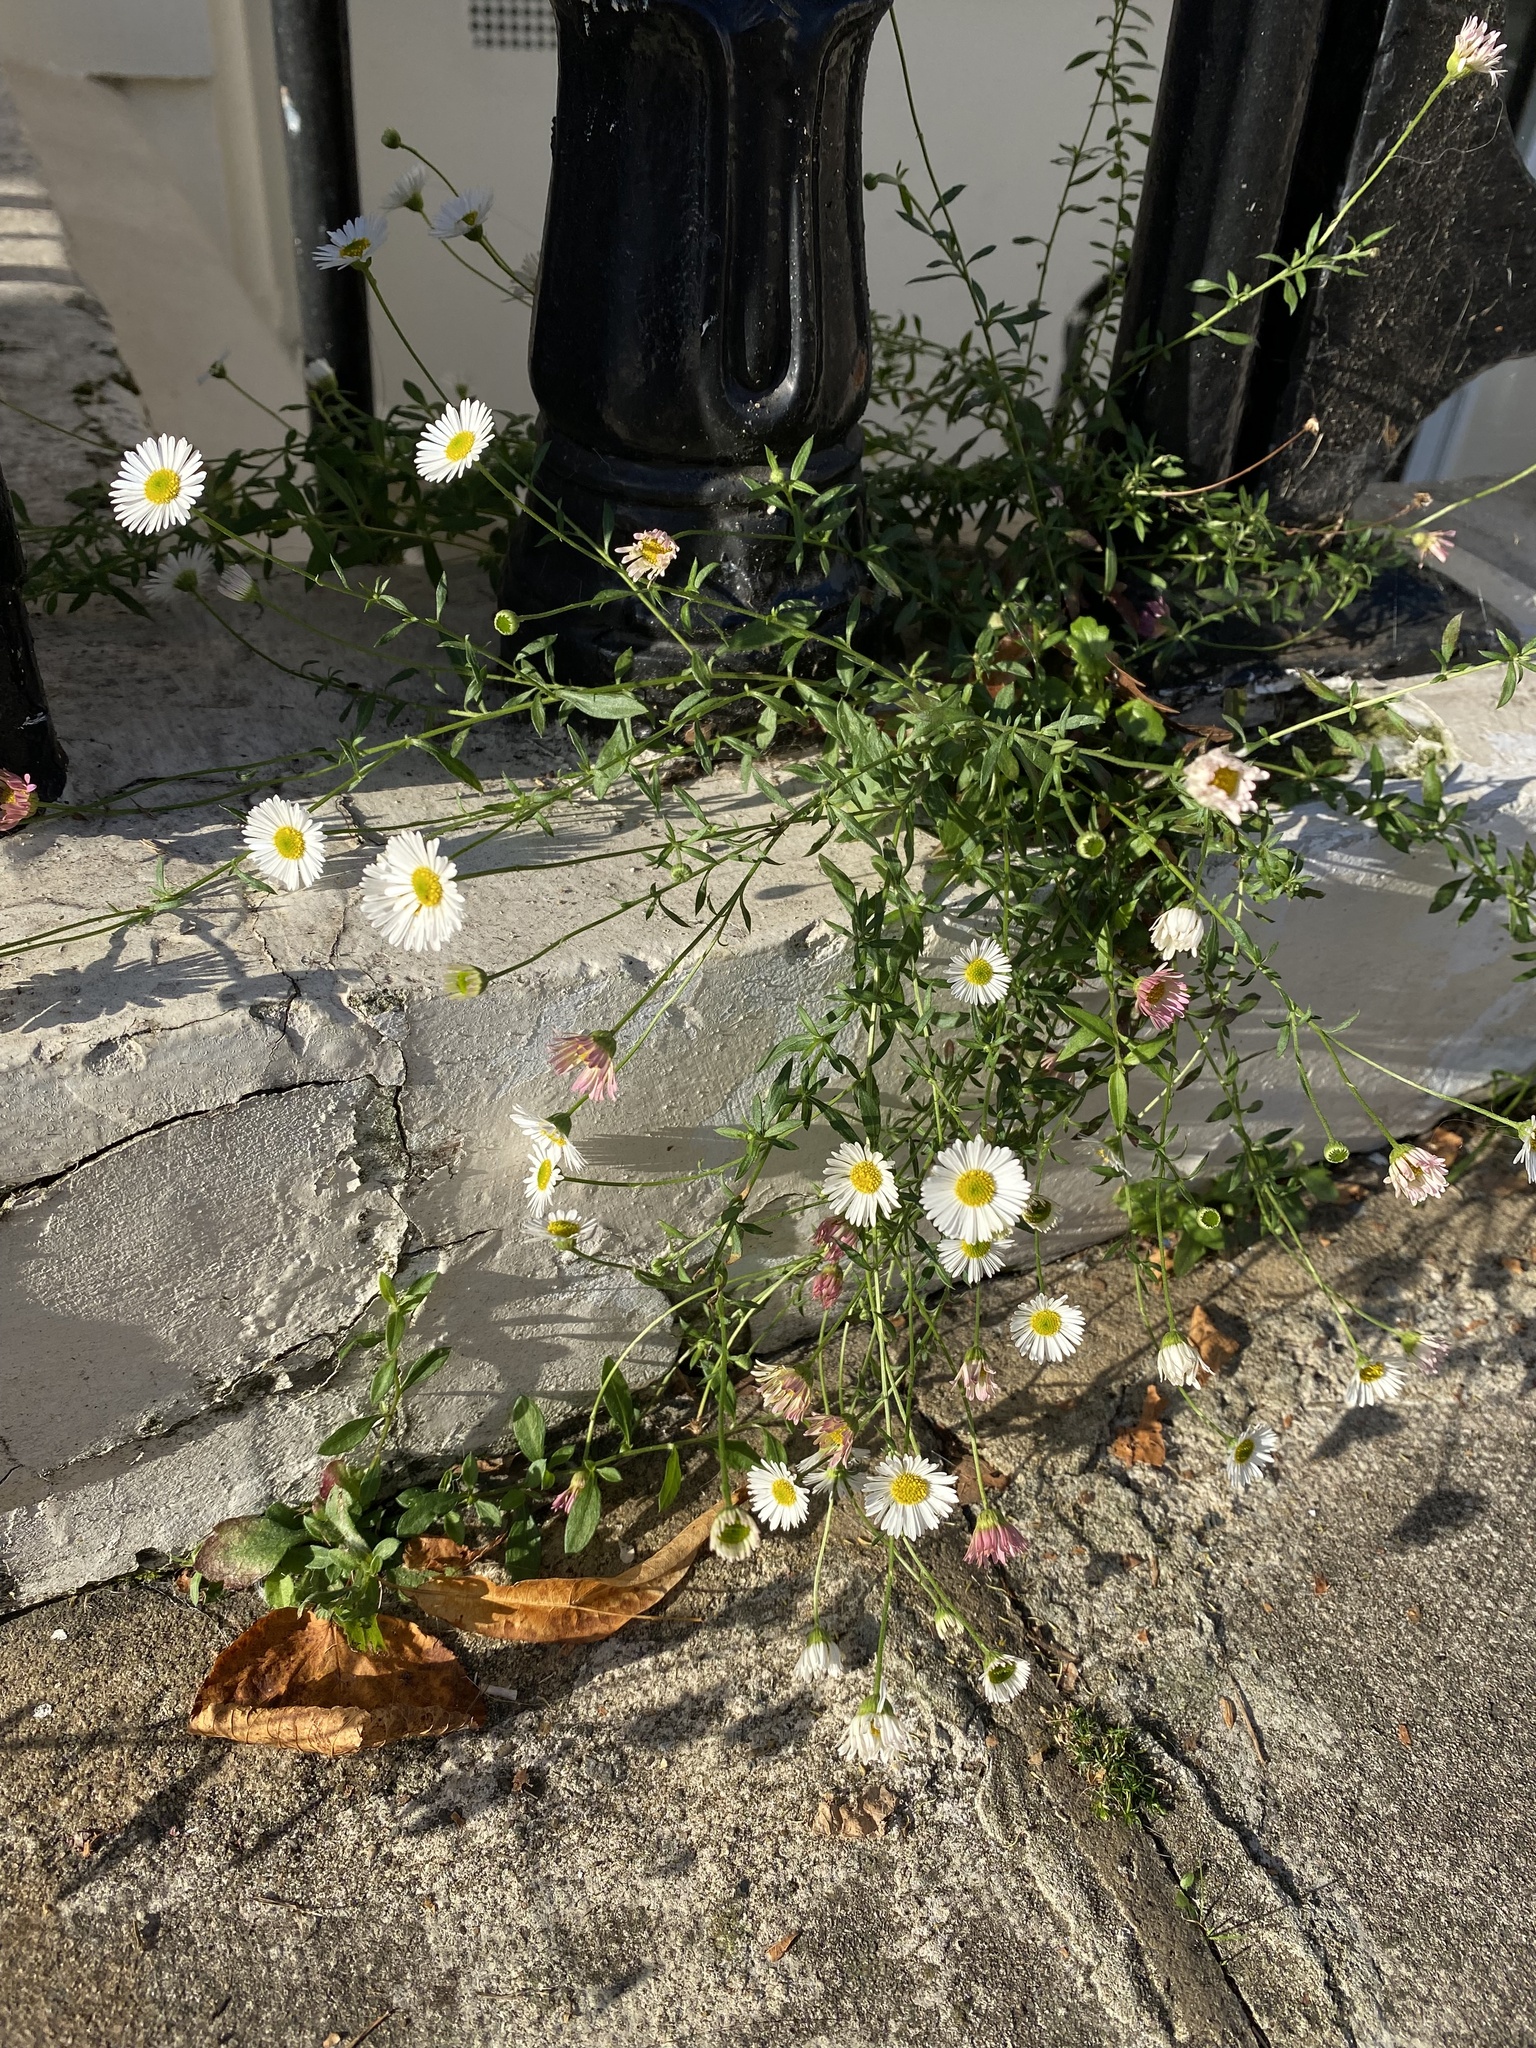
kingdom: Plantae
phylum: Tracheophyta
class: Magnoliopsida
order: Asterales
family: Asteraceae
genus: Erigeron
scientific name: Erigeron karvinskianus
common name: Mexican fleabane
